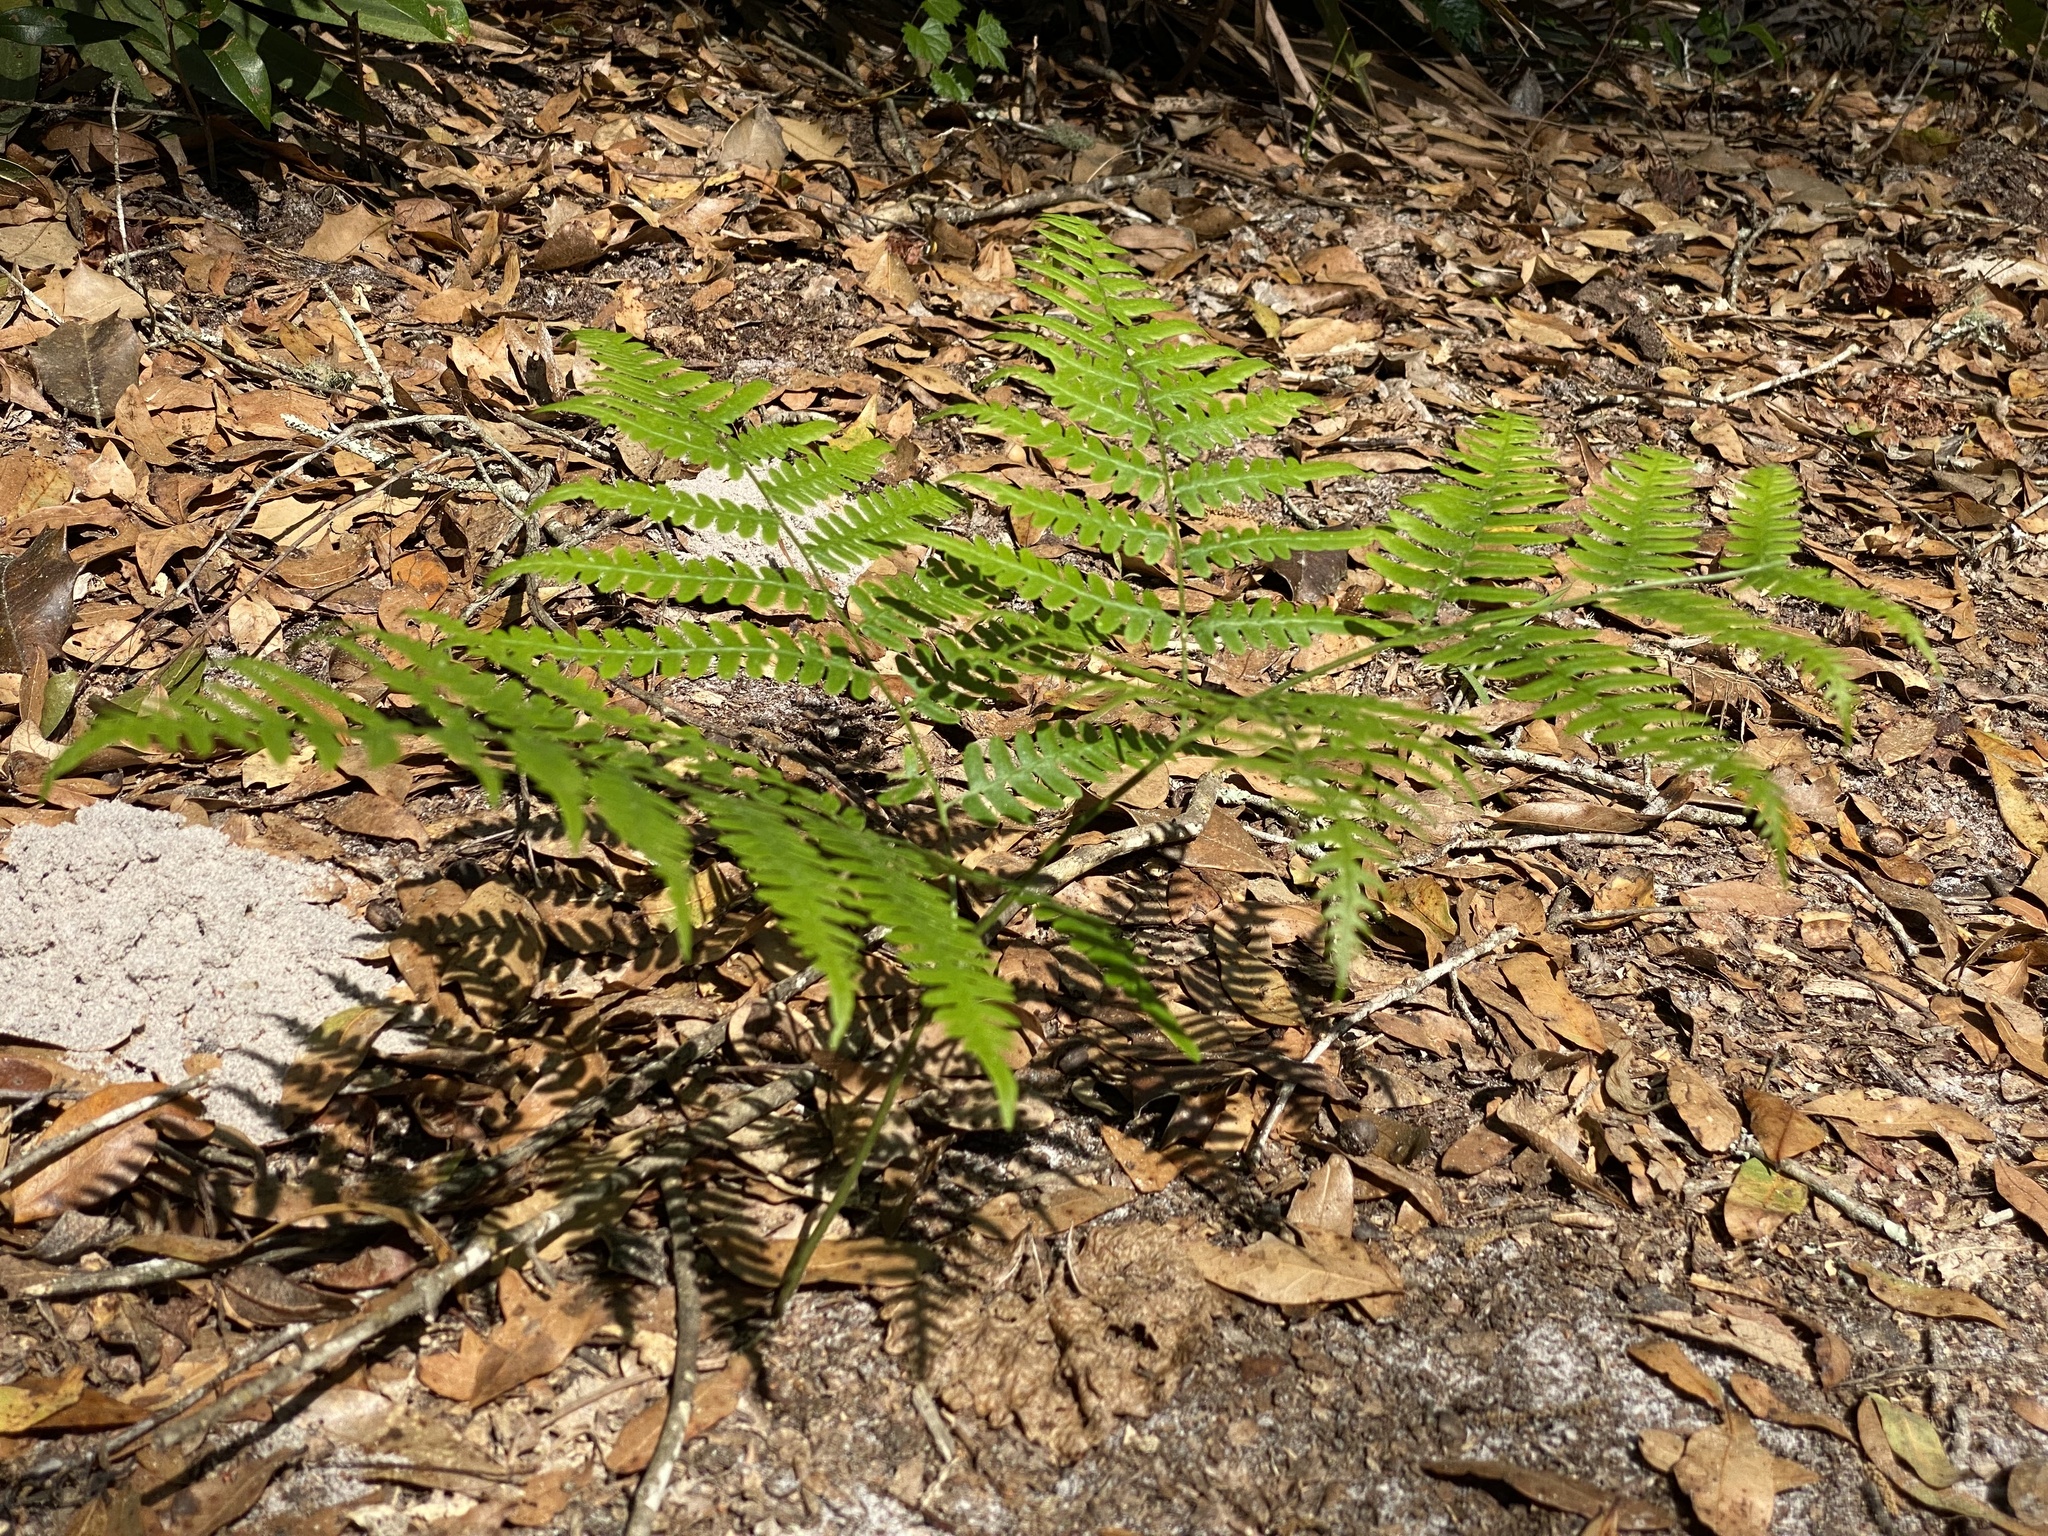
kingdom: Plantae
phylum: Tracheophyta
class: Polypodiopsida
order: Polypodiales
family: Dennstaedtiaceae
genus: Pteridium
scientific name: Pteridium aquilinum
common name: Bracken
